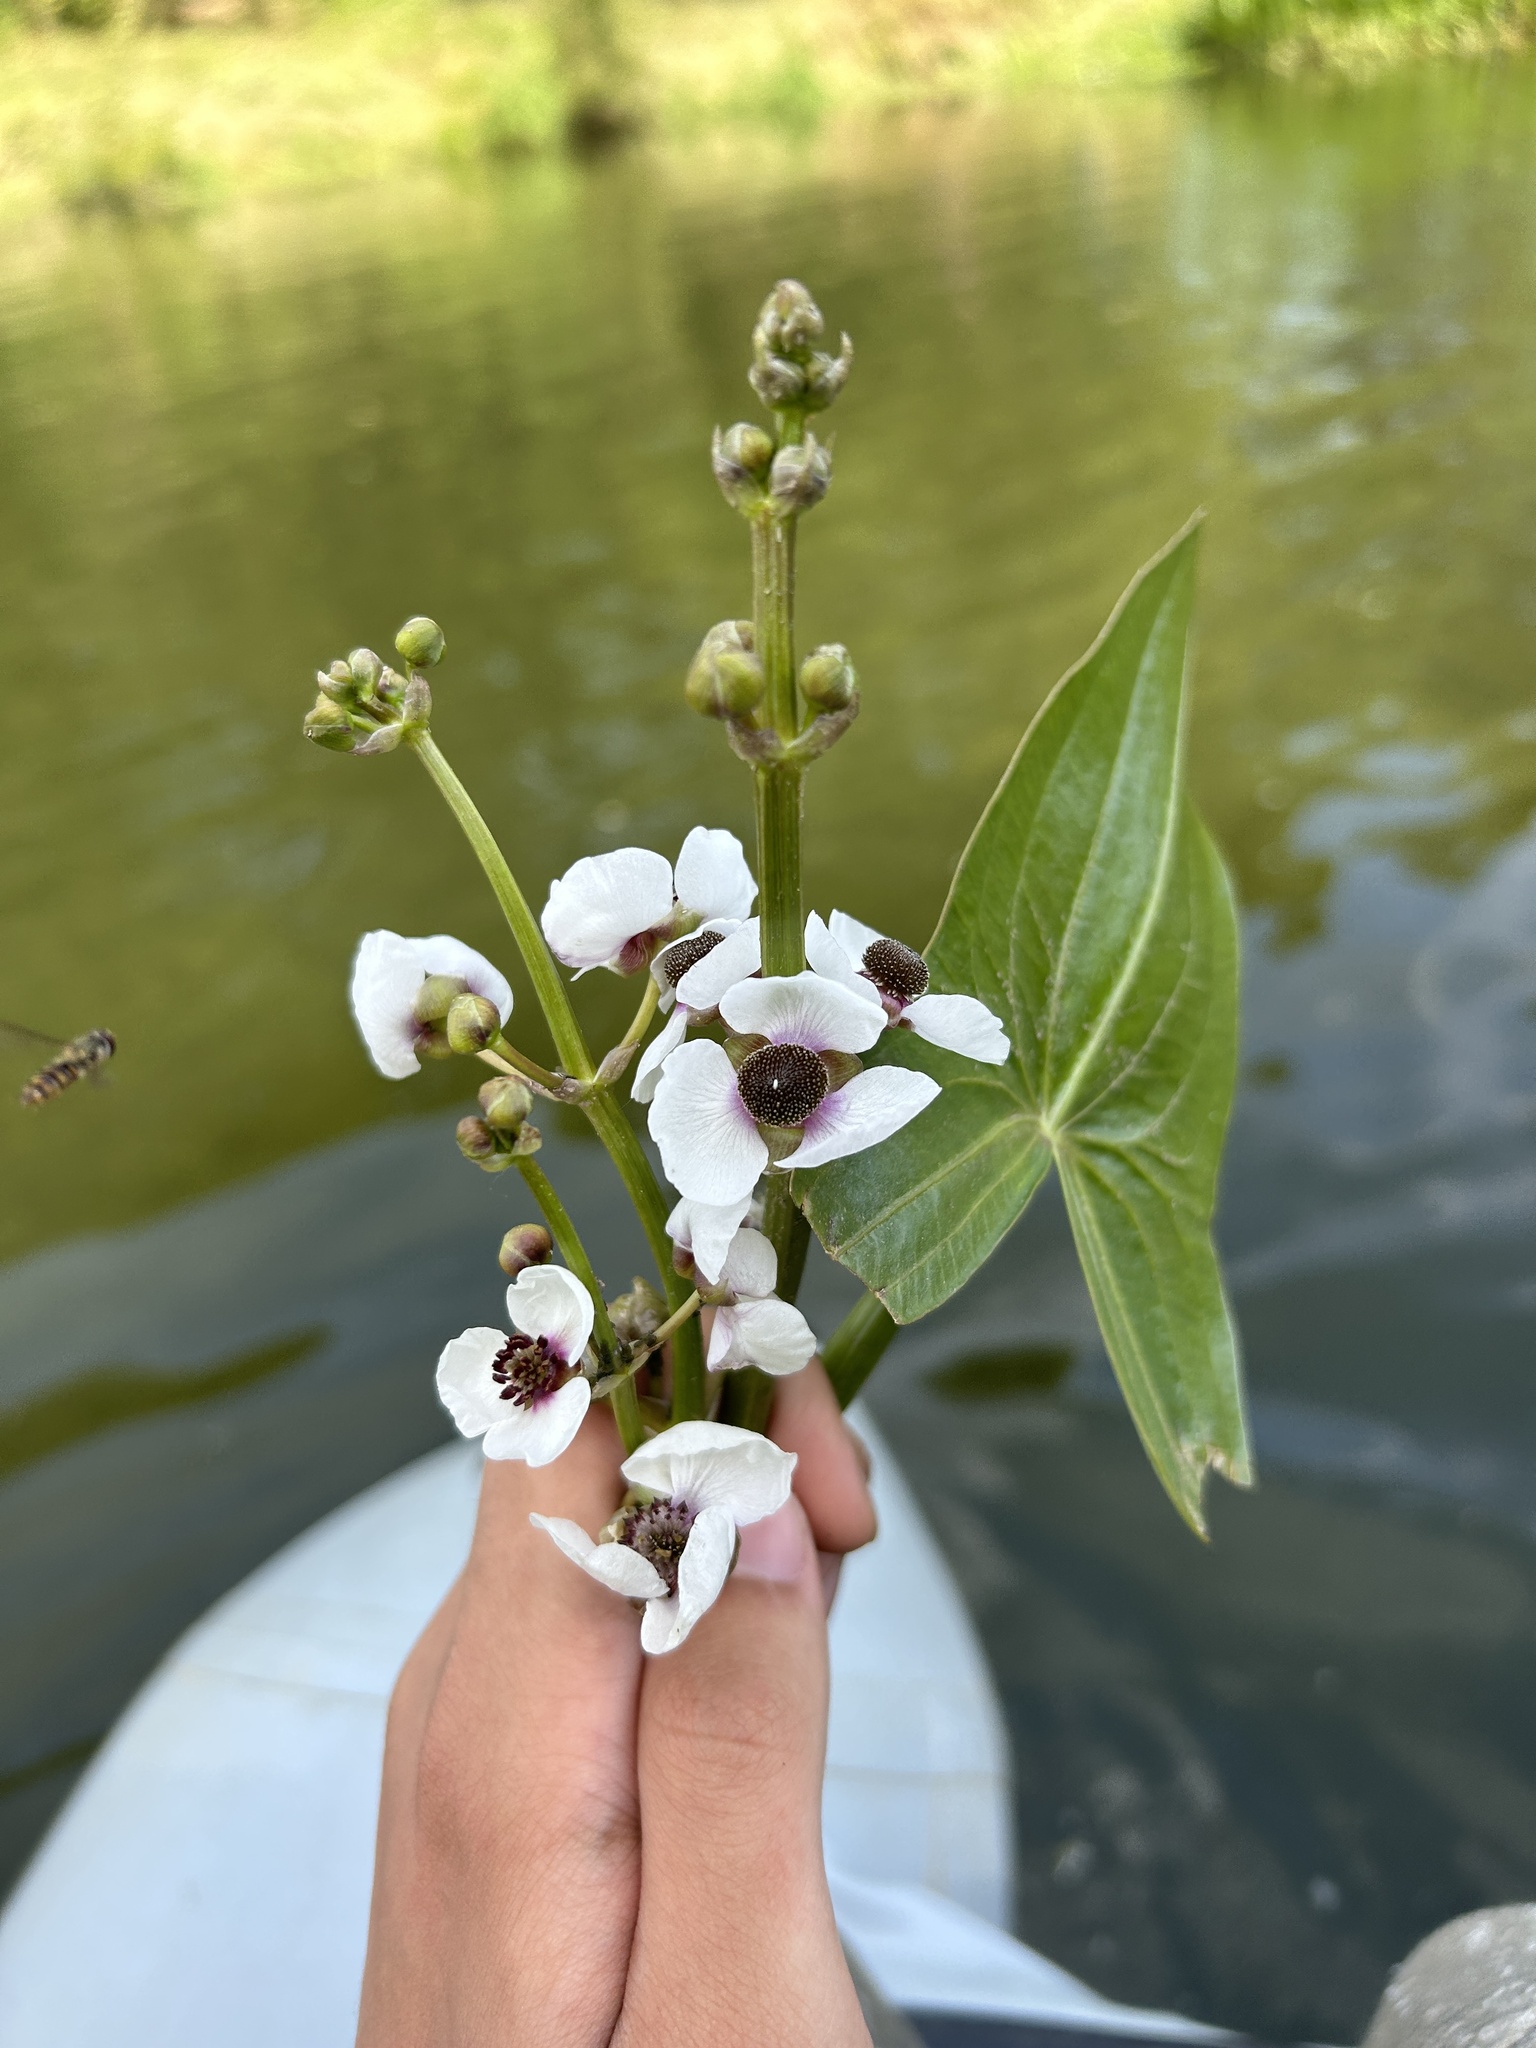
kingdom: Plantae
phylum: Tracheophyta
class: Liliopsida
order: Alismatales
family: Alismataceae
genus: Sagittaria
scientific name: Sagittaria sagittifolia
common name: Arrowhead
